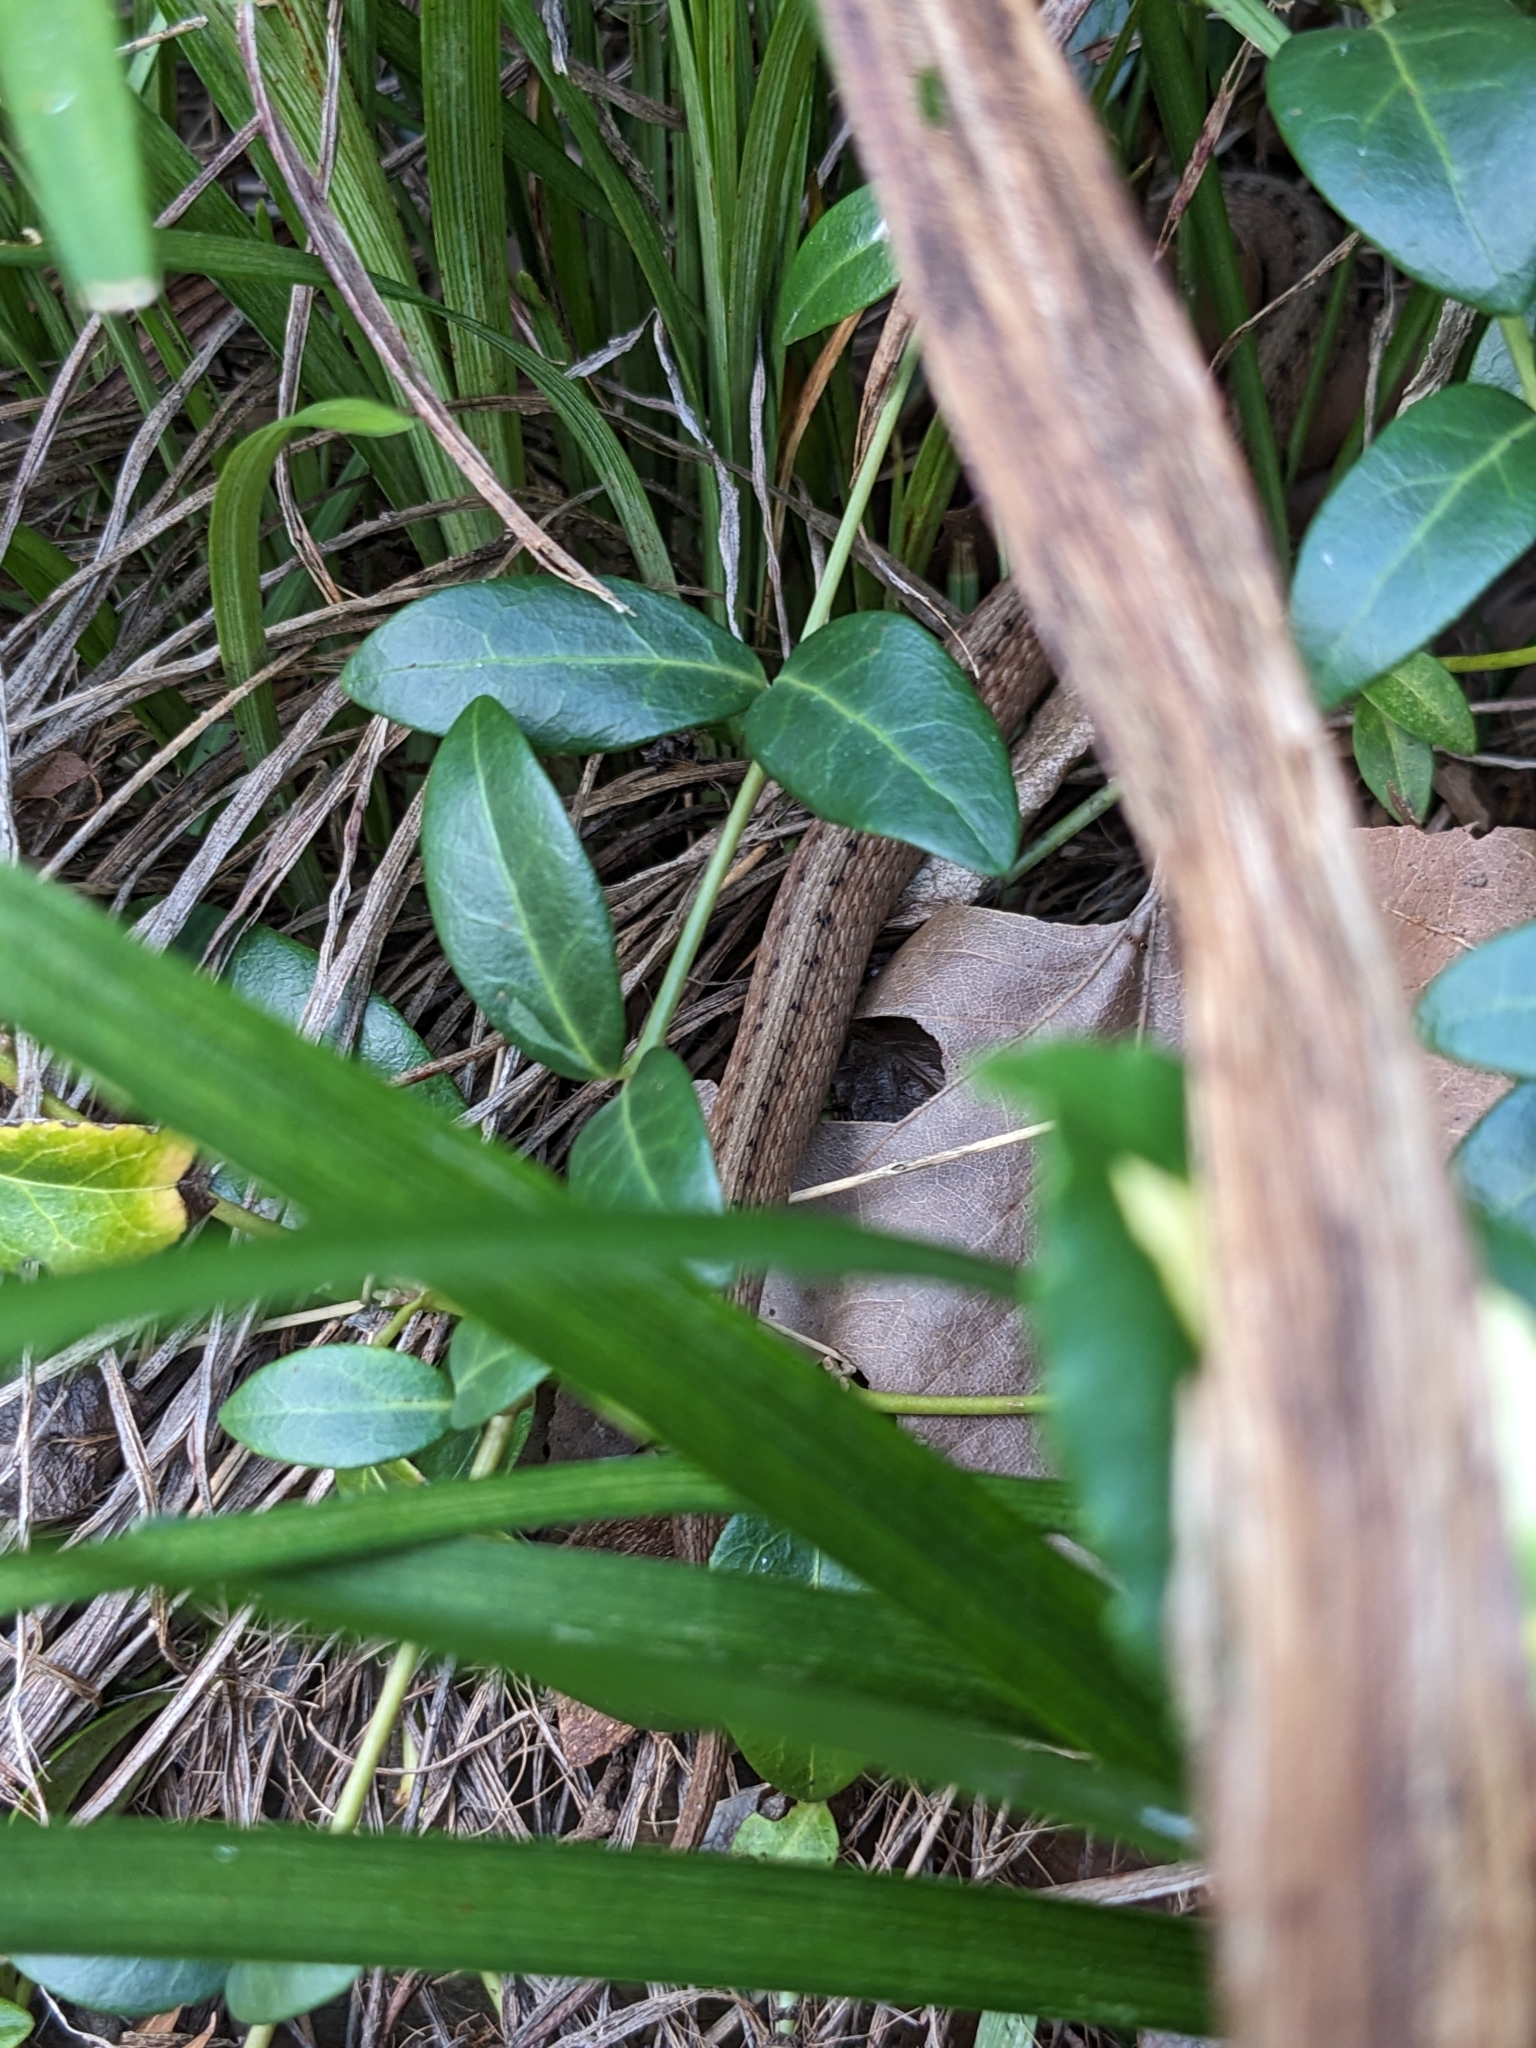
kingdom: Animalia
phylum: Chordata
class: Squamata
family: Colubridae
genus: Storeria
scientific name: Storeria dekayi
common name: (dekay’s) brown snake
